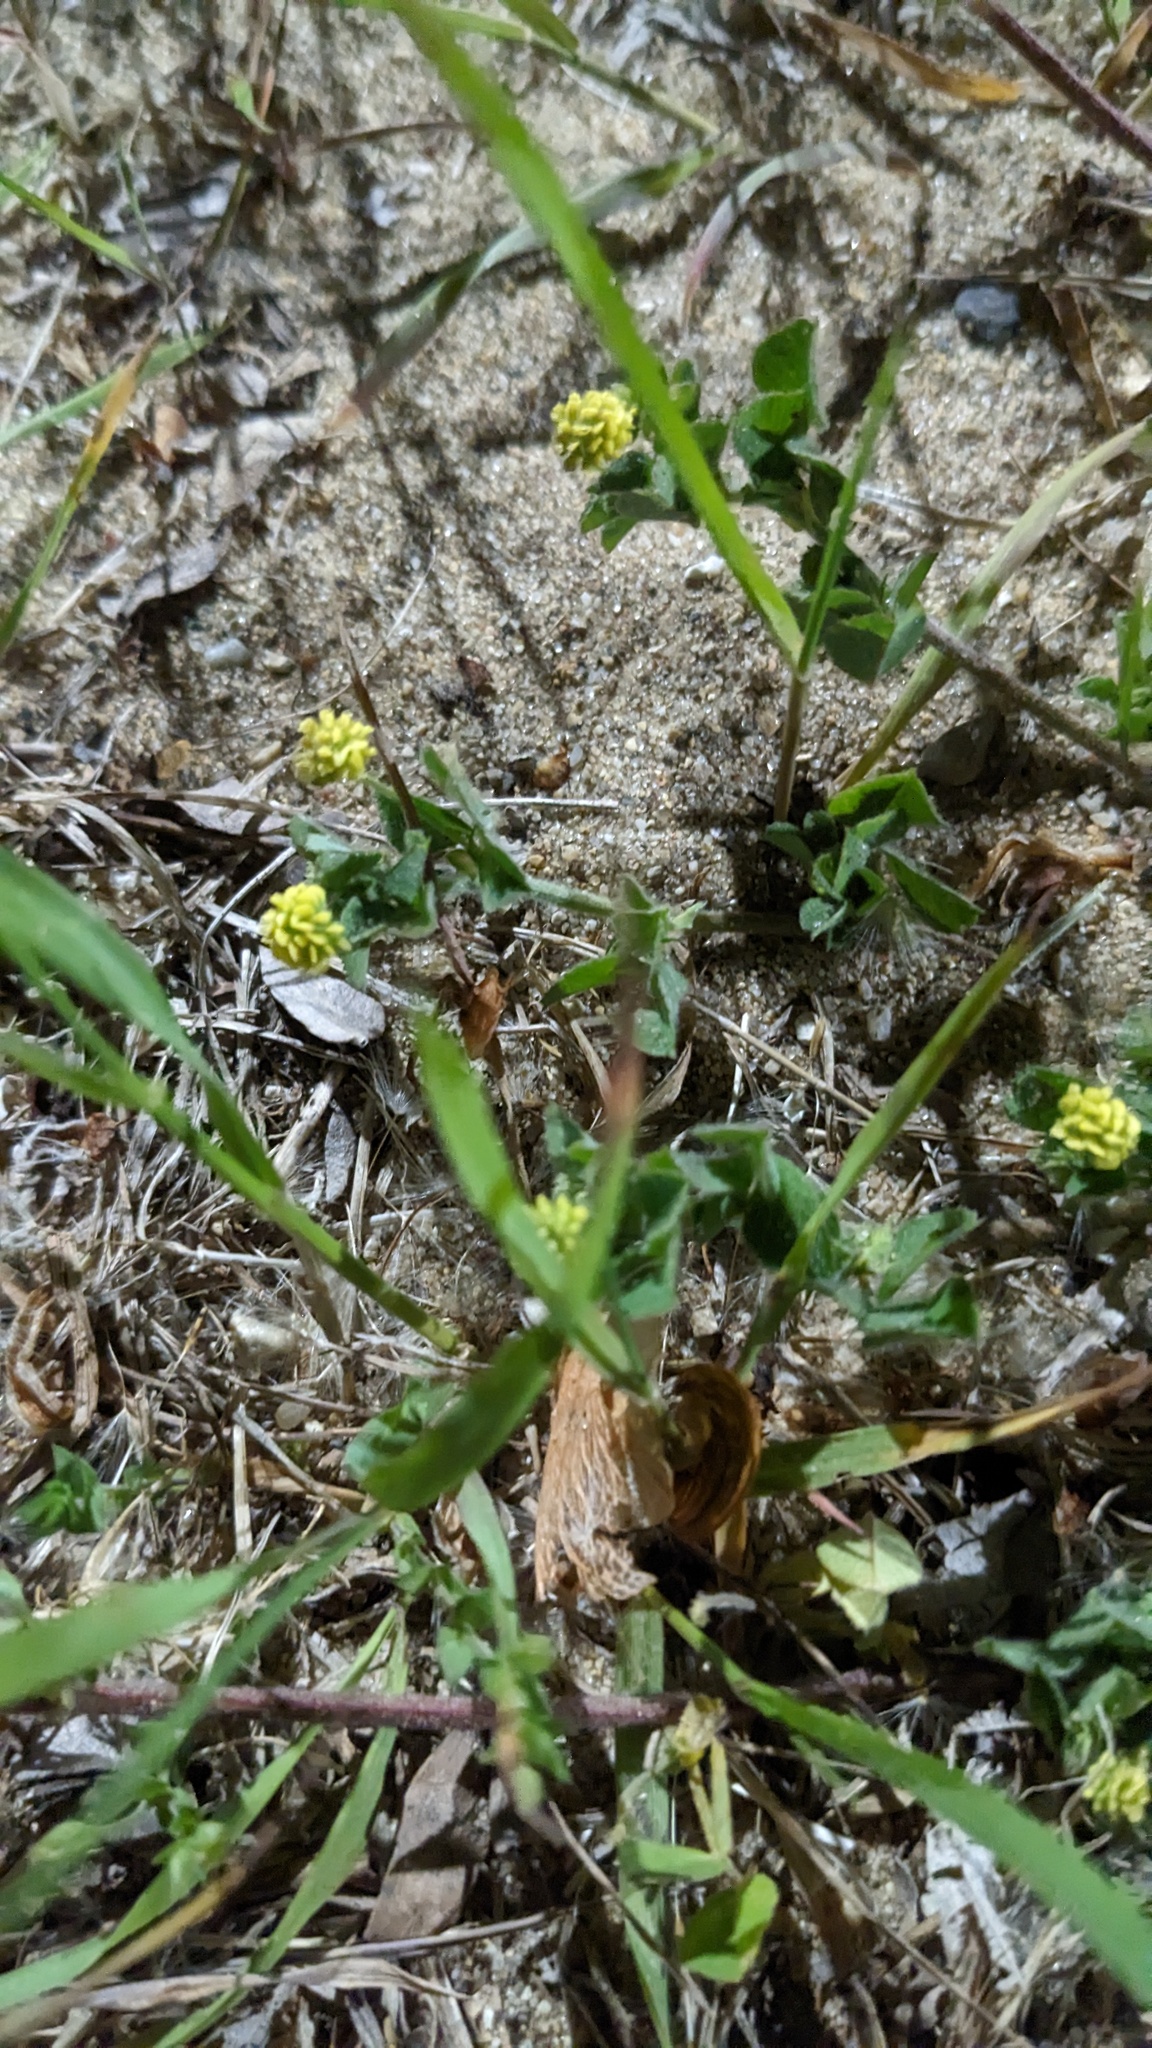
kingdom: Plantae
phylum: Tracheophyta
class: Magnoliopsida
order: Fabales
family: Fabaceae
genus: Medicago
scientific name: Medicago lupulina
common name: Black medick
